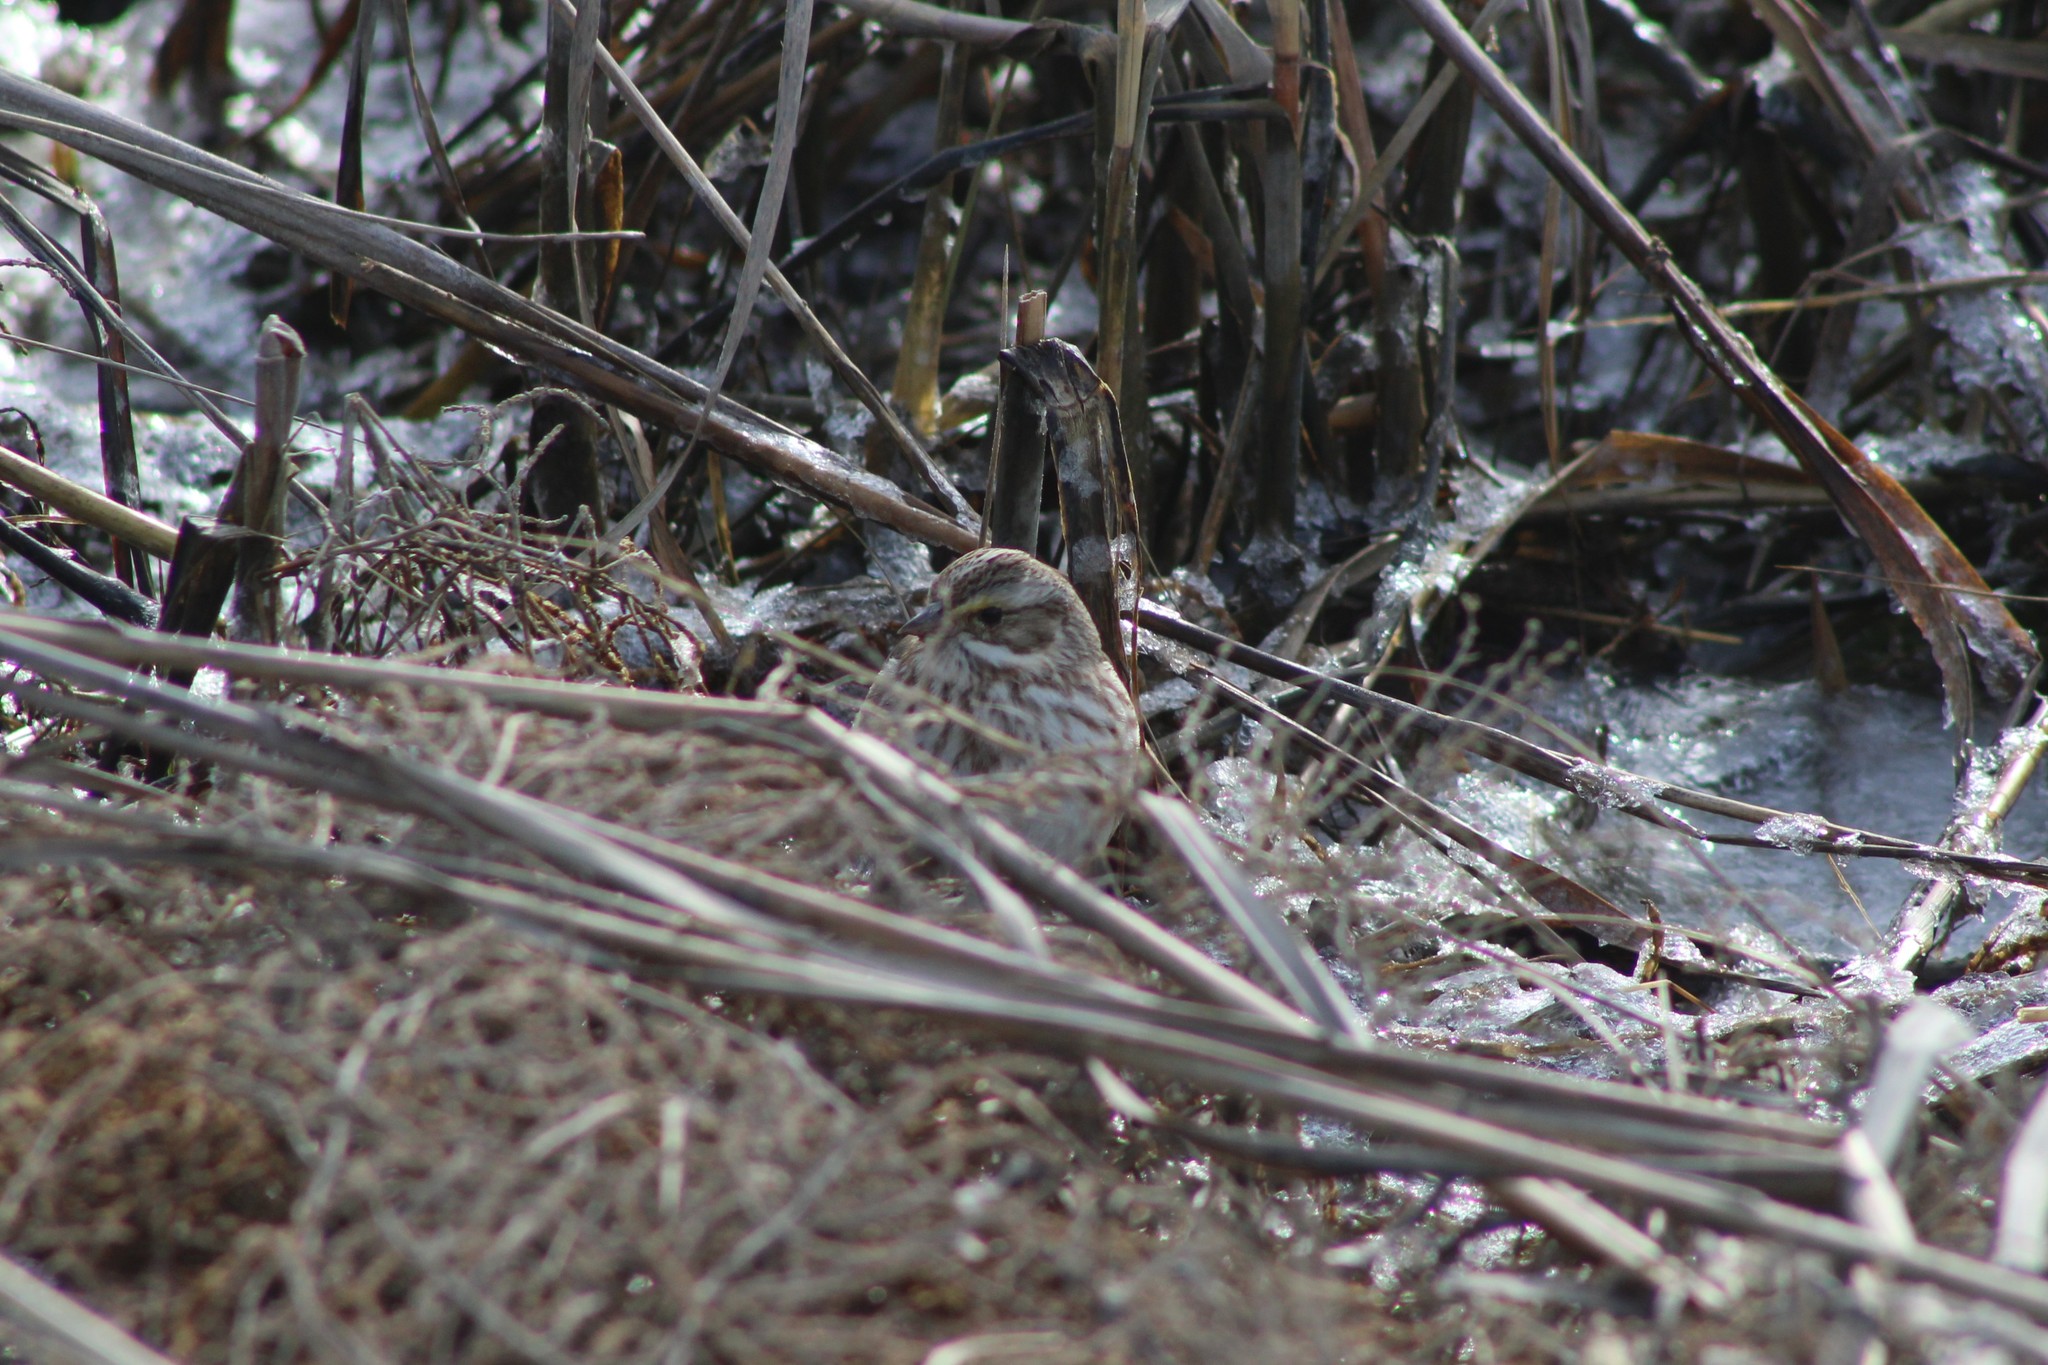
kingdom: Animalia
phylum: Chordata
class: Aves
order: Passeriformes
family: Passerellidae
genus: Passerculus
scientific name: Passerculus sandwichensis
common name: Savannah sparrow
